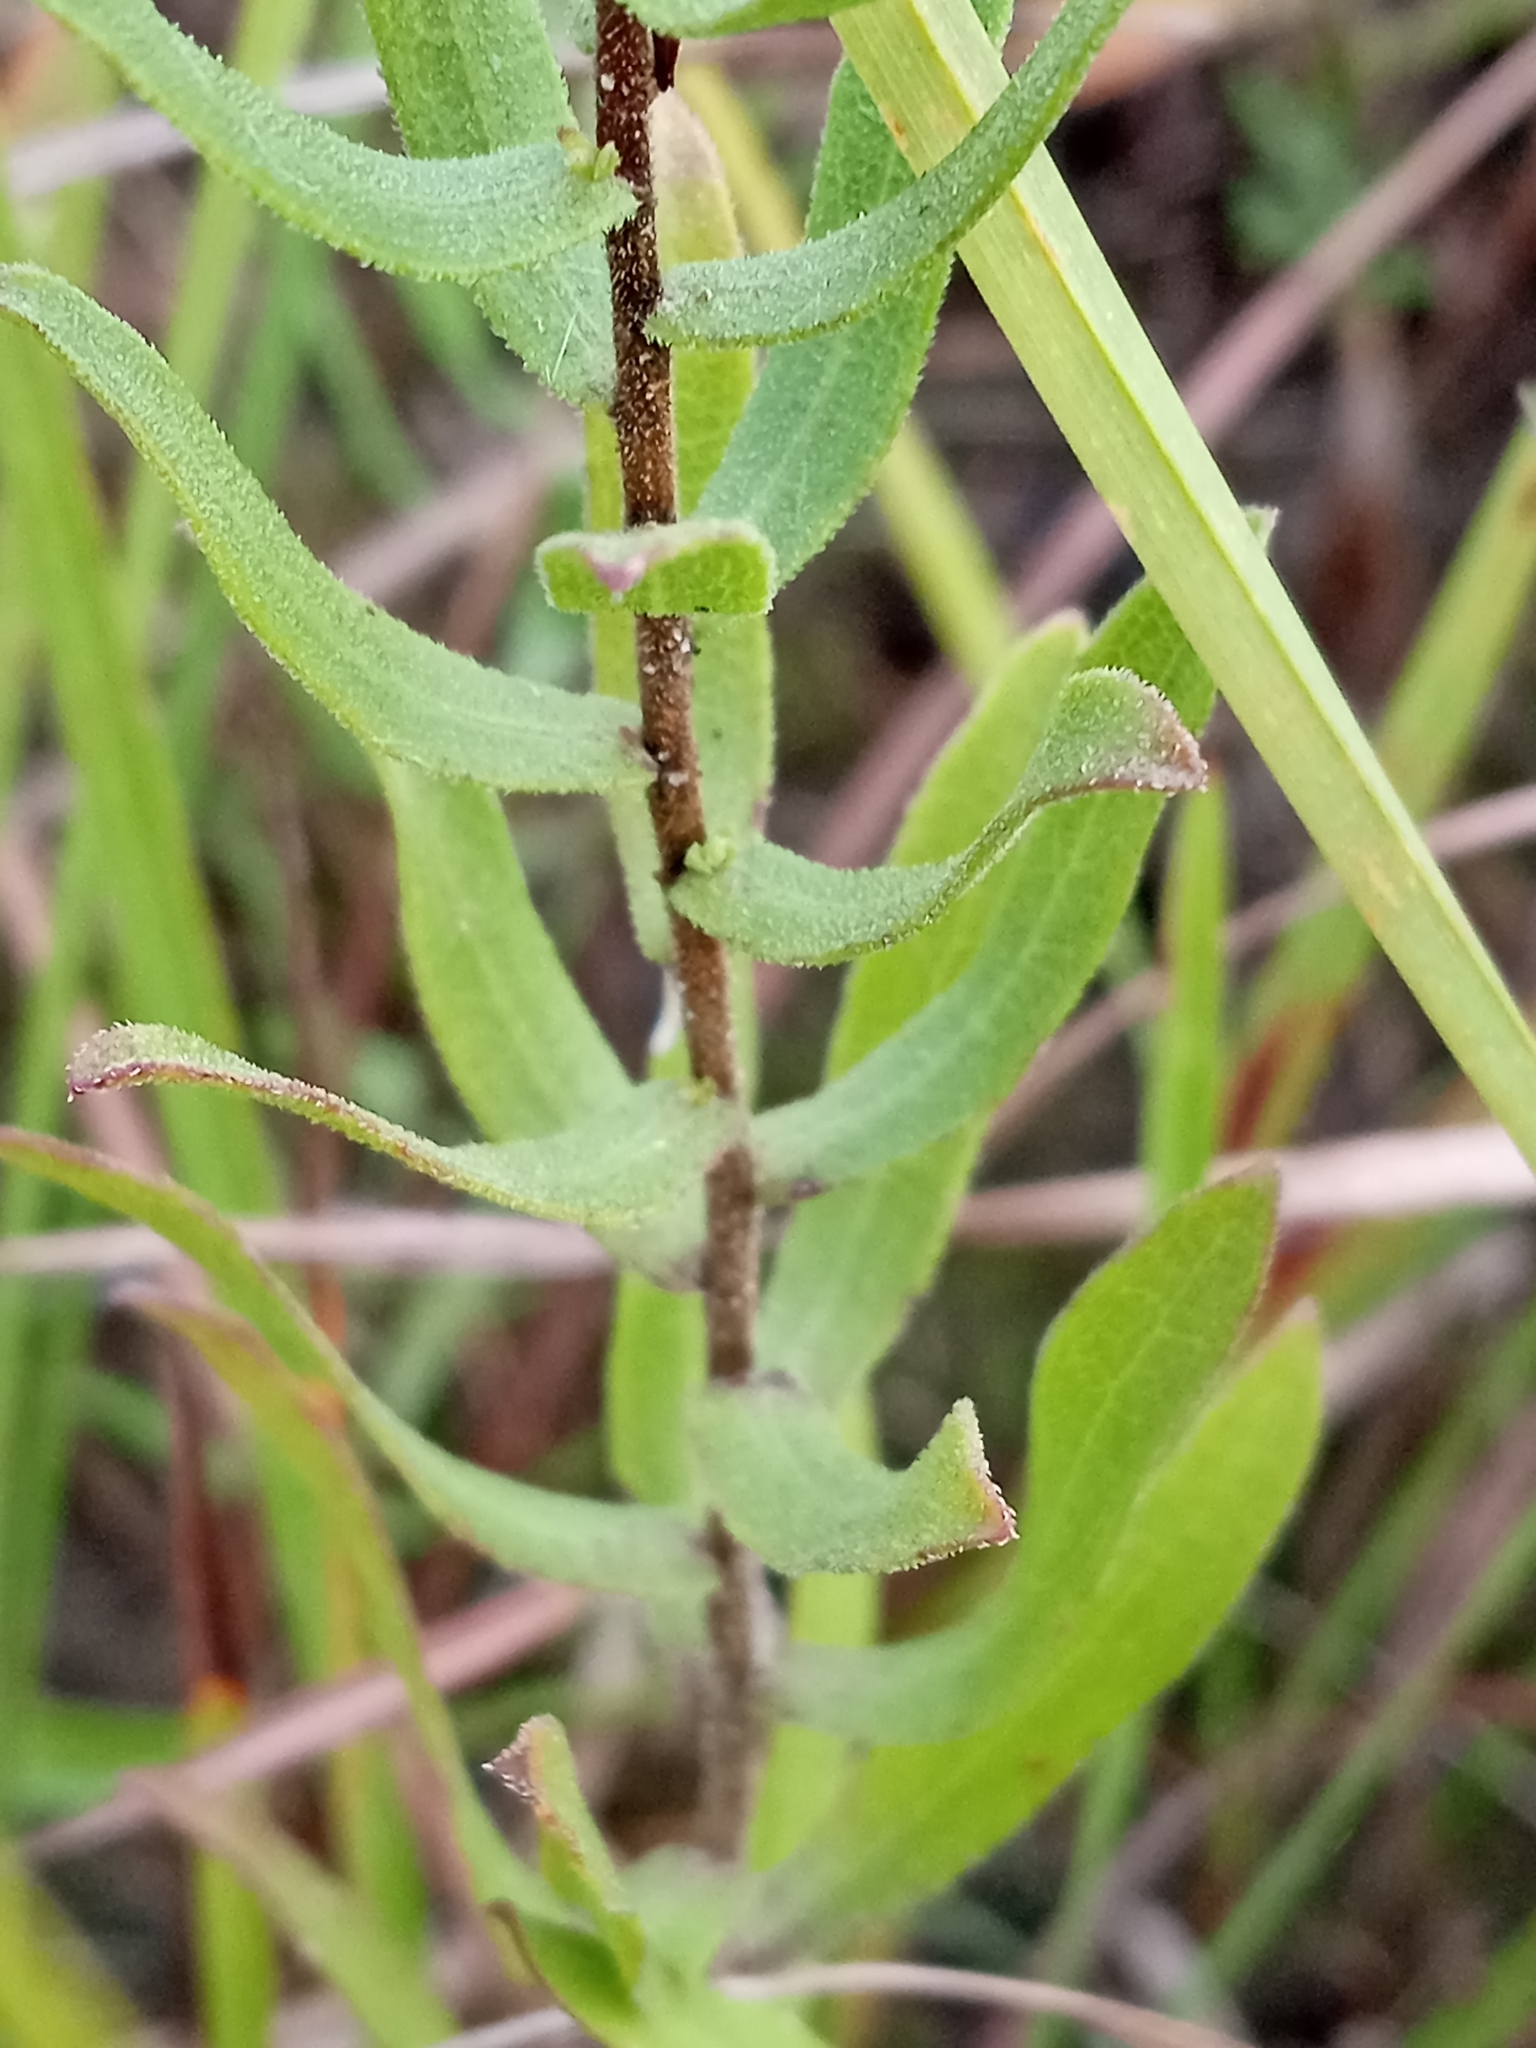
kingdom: Plantae
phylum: Tracheophyta
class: Magnoliopsida
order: Asterales
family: Asteraceae
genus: Symphyotrichum
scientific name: Symphyotrichum oblongifolium
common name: Aromatic aster
